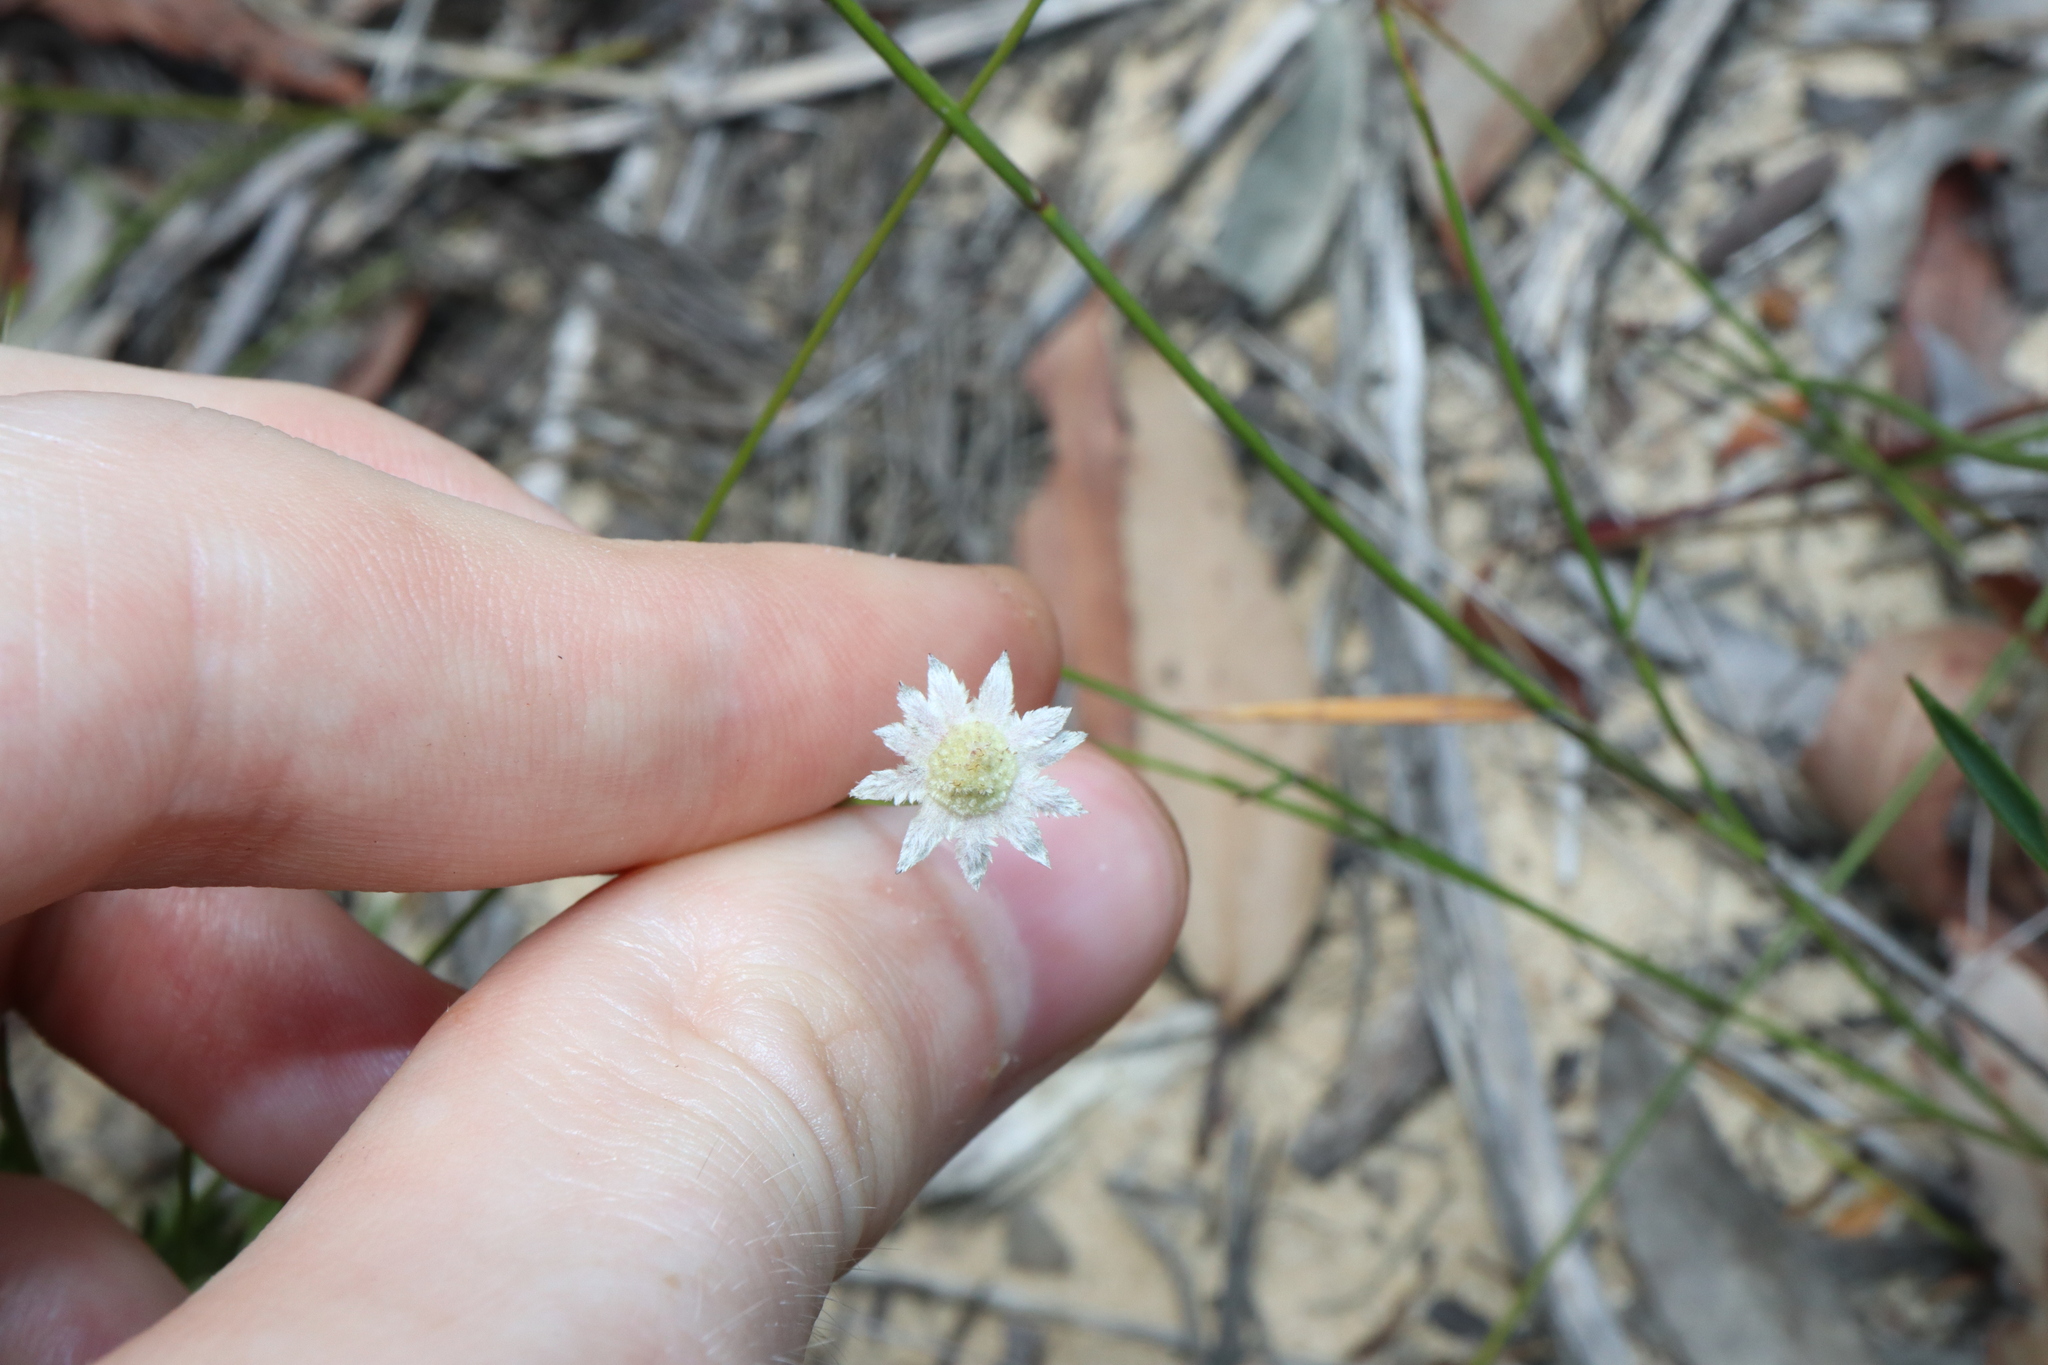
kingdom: Plantae
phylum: Tracheophyta
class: Magnoliopsida
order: Apiales
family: Apiaceae
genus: Actinotus
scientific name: Actinotus minor
